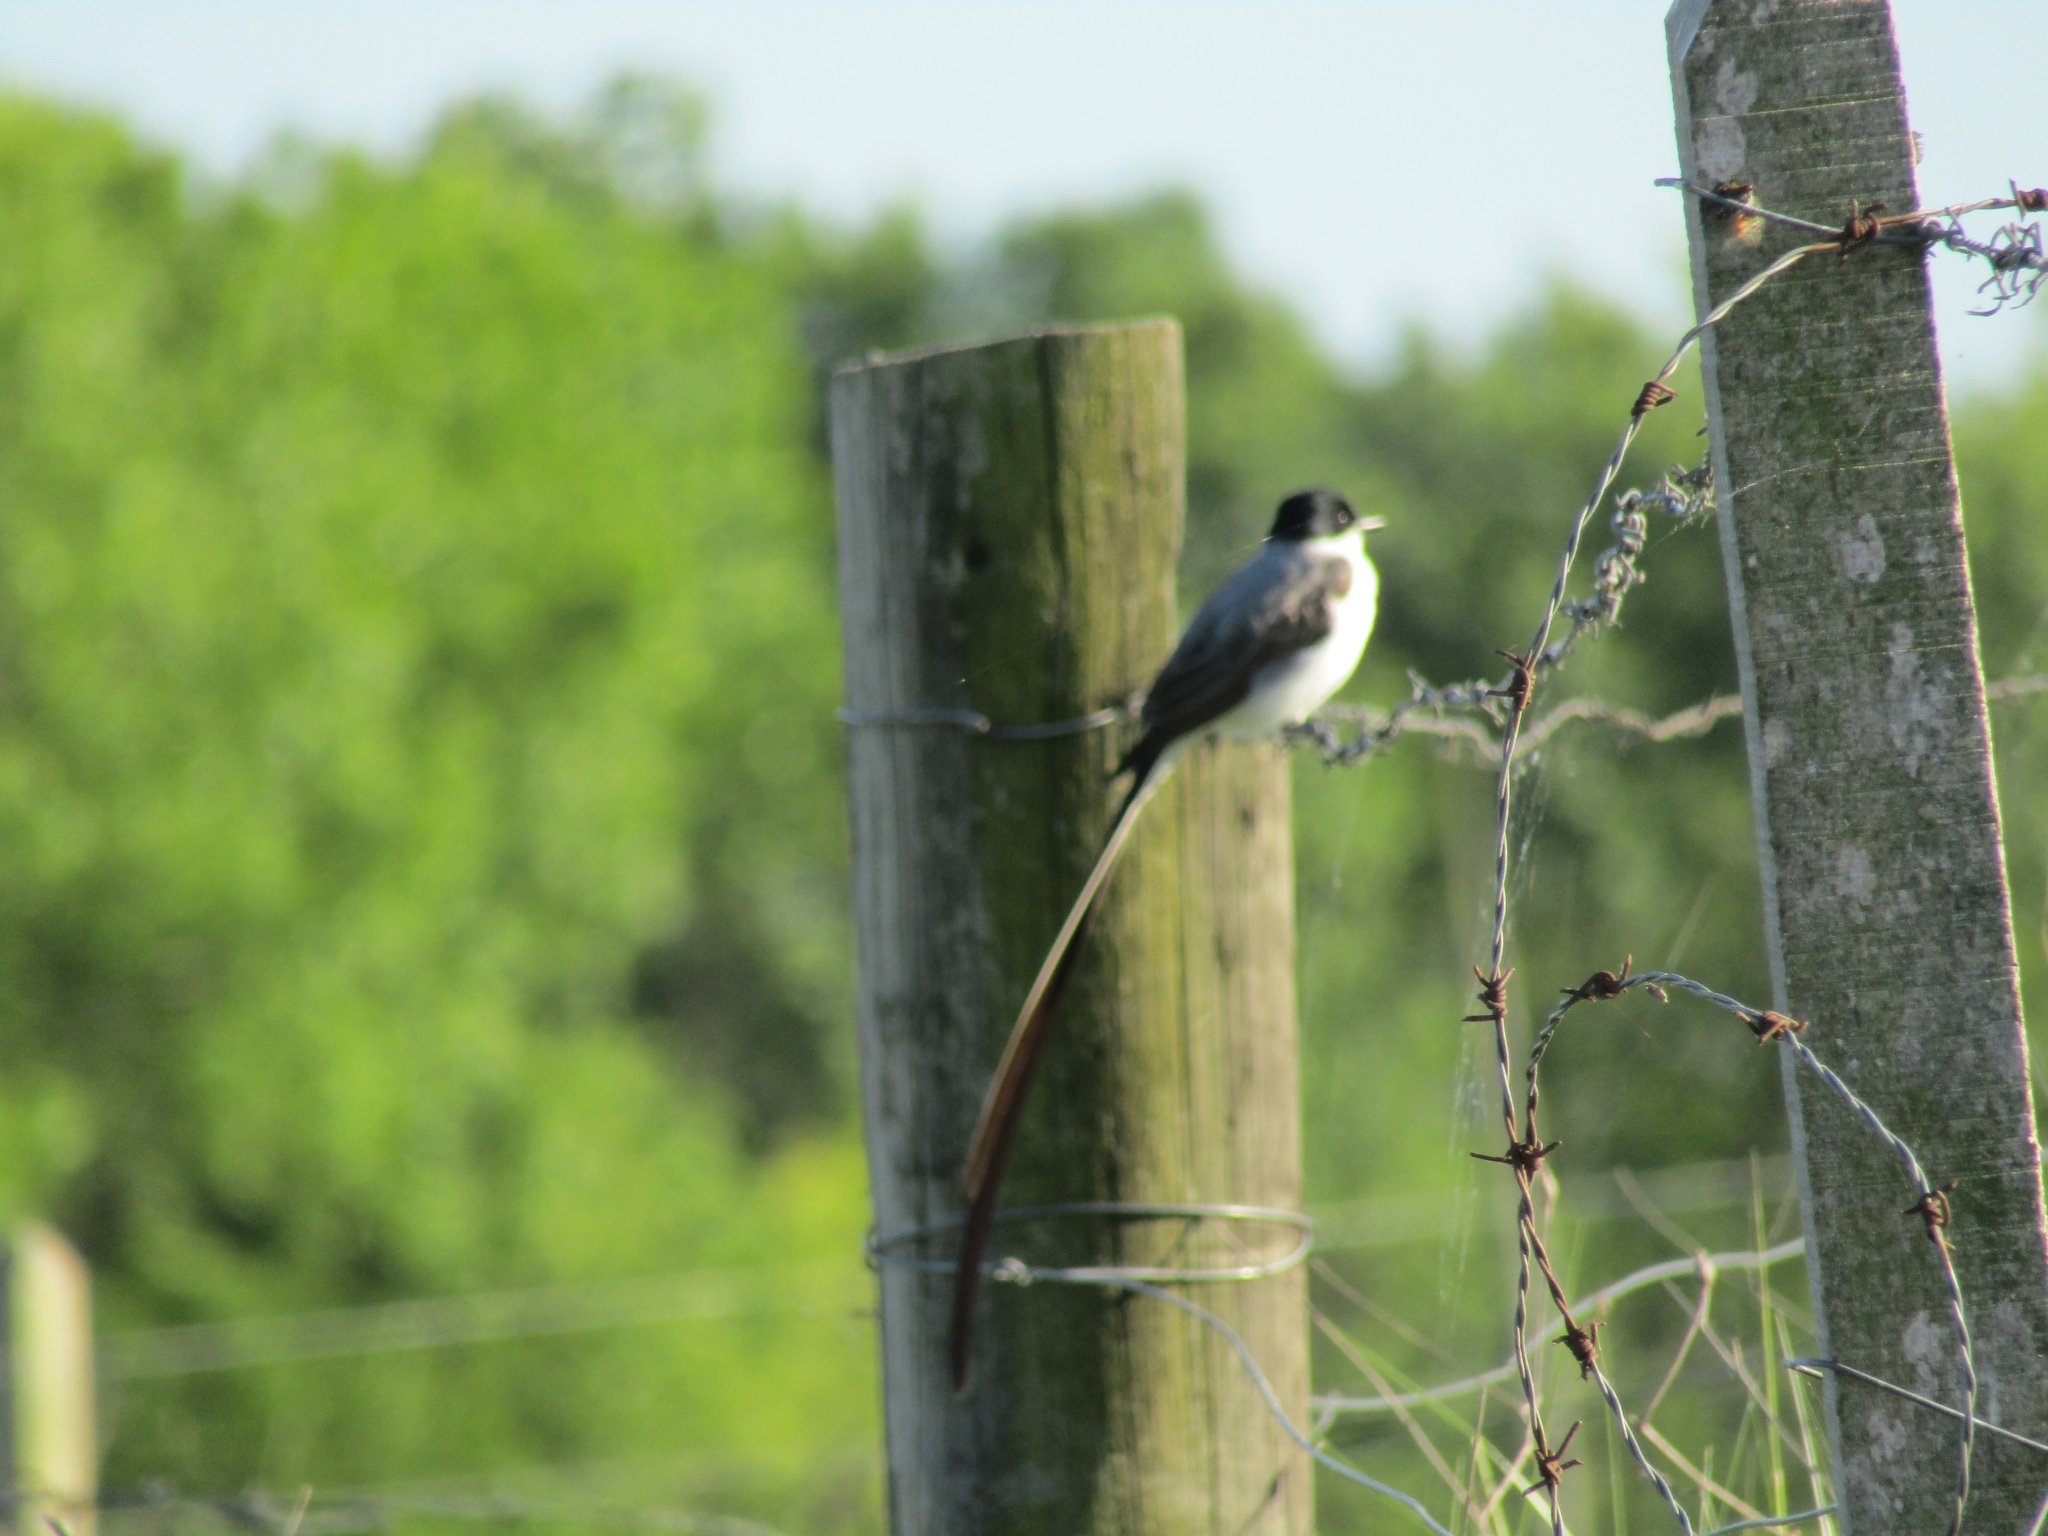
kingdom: Animalia
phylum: Chordata
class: Aves
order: Passeriformes
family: Tyrannidae
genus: Tyrannus
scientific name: Tyrannus savana
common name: Fork-tailed flycatcher
